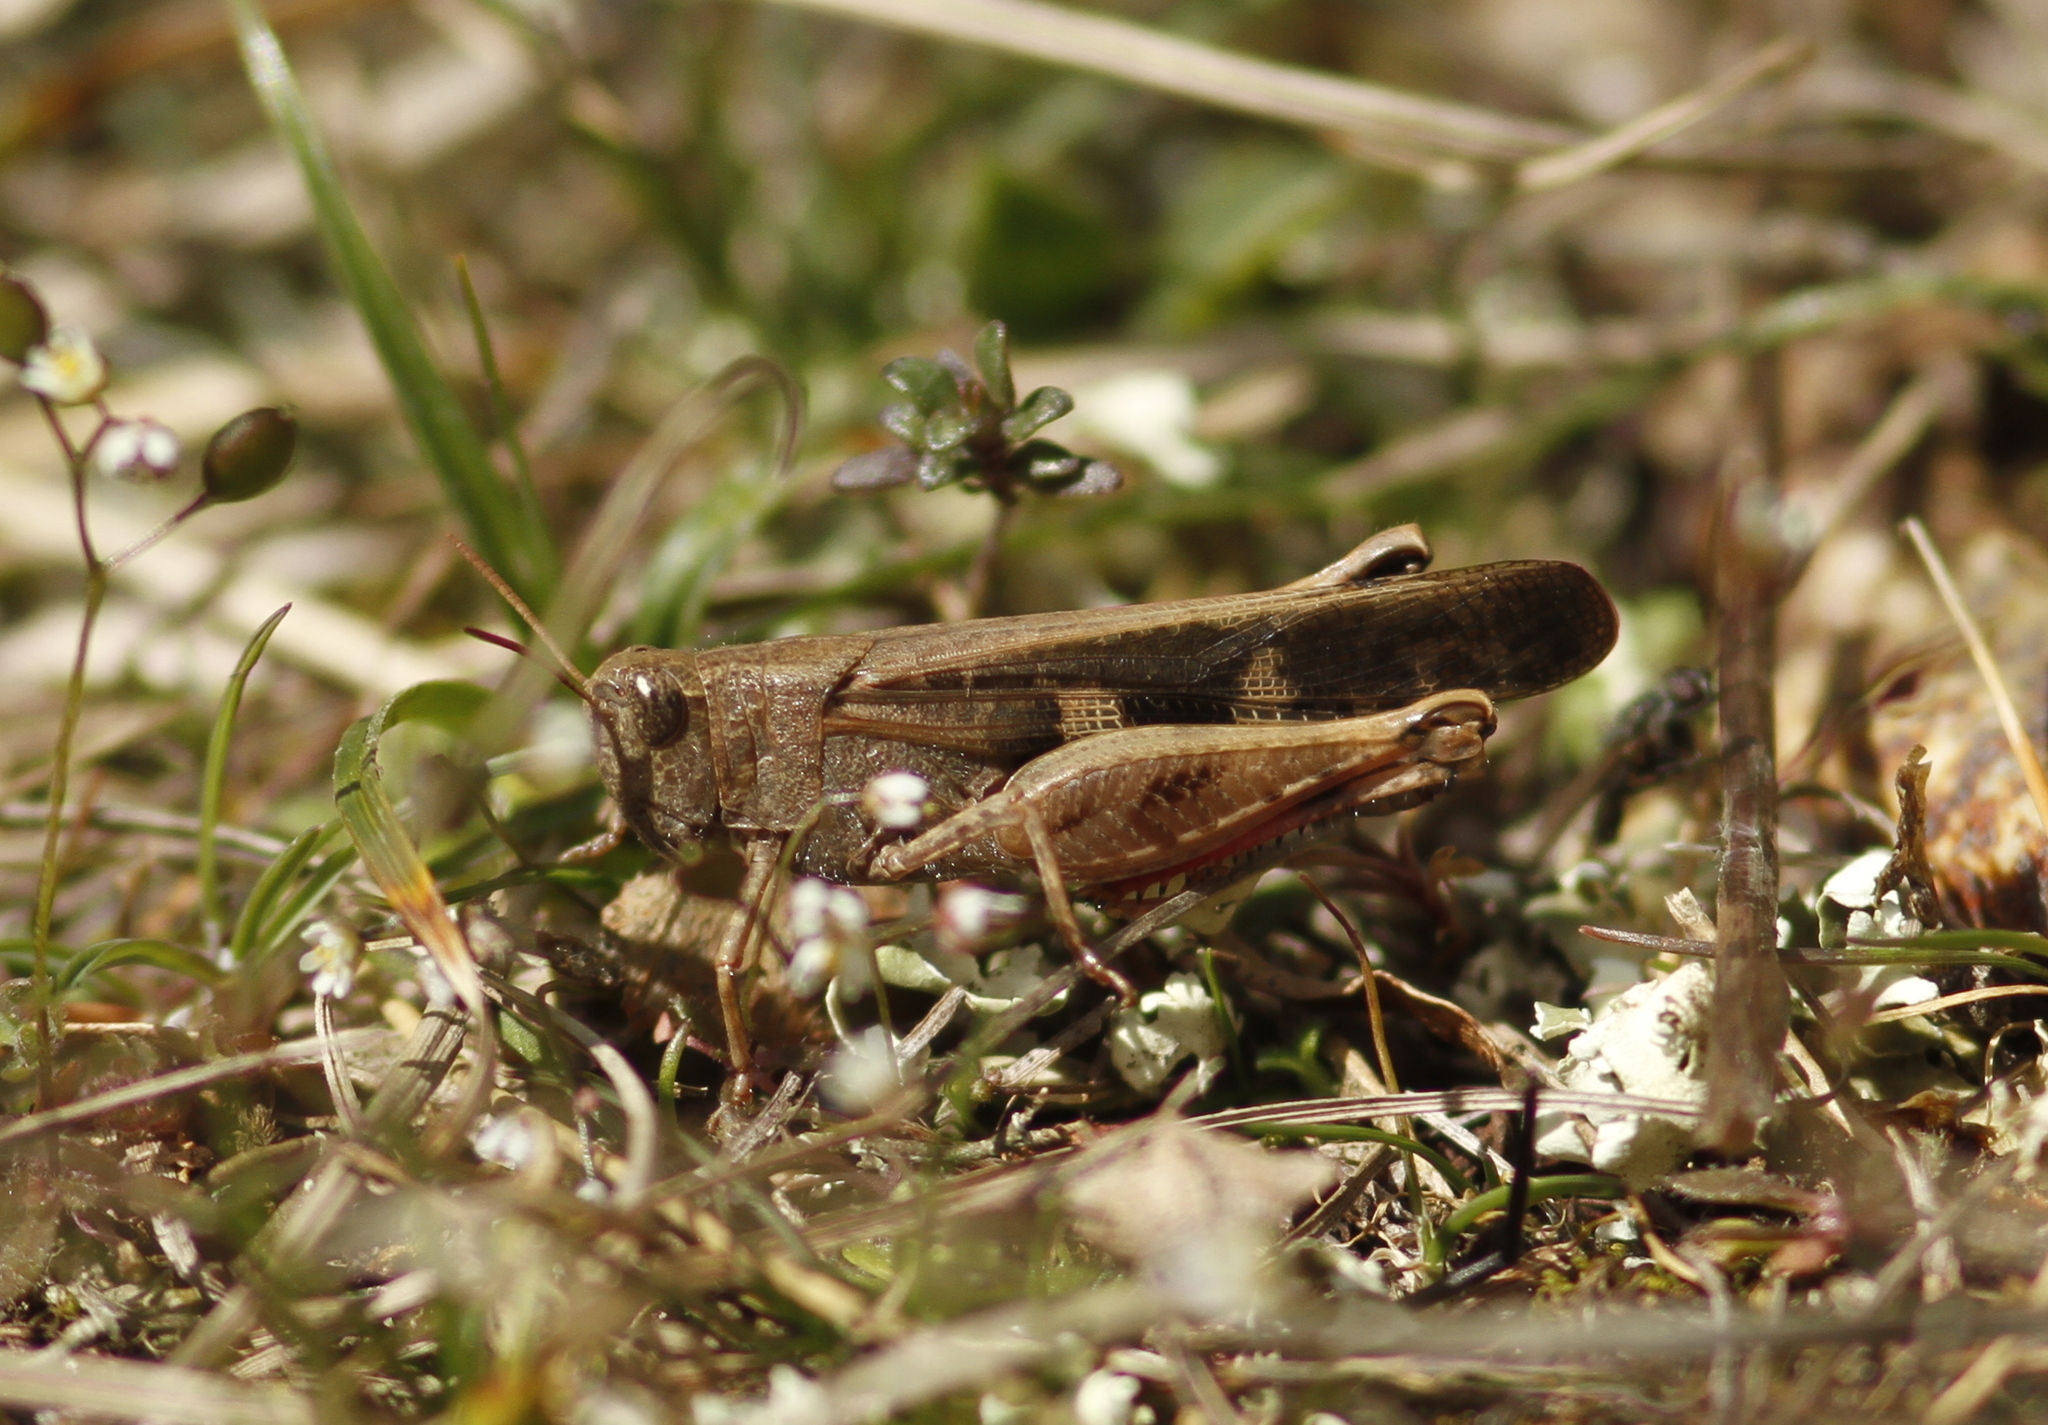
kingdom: Animalia
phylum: Arthropoda
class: Insecta
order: Orthoptera
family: Acrididae
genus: Aiolopus
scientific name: Aiolopus strepens
